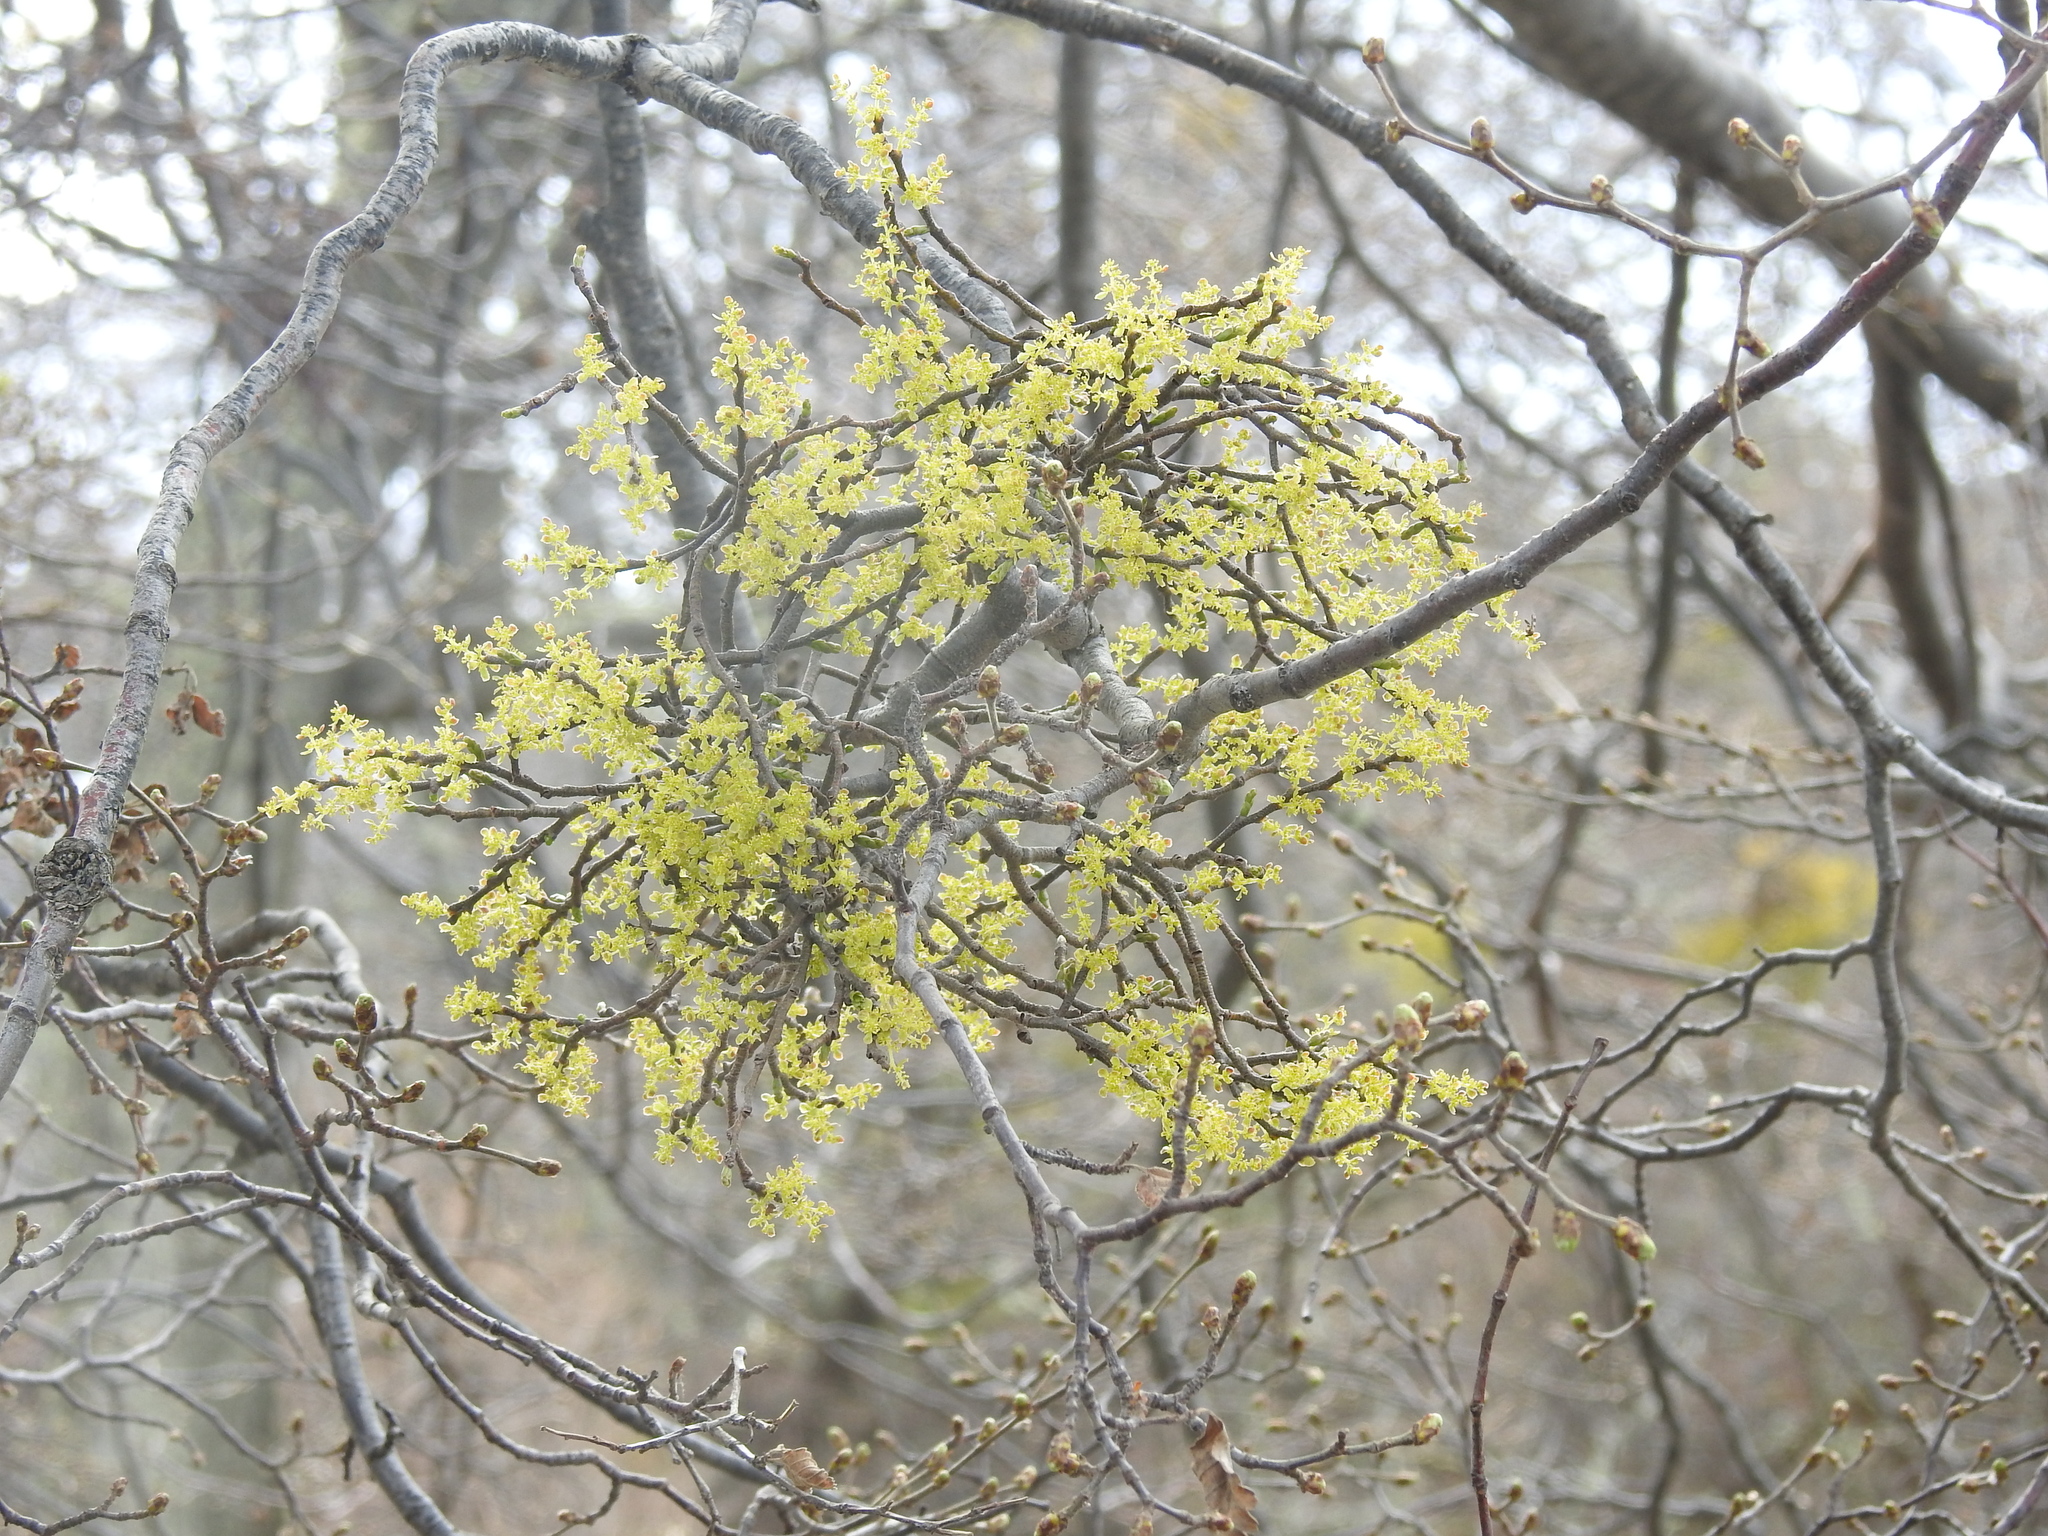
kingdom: Plantae
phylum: Tracheophyta
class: Magnoliopsida
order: Santalales
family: Misodendraceae
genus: Misodendrum
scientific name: Misodendrum quadriflorum
